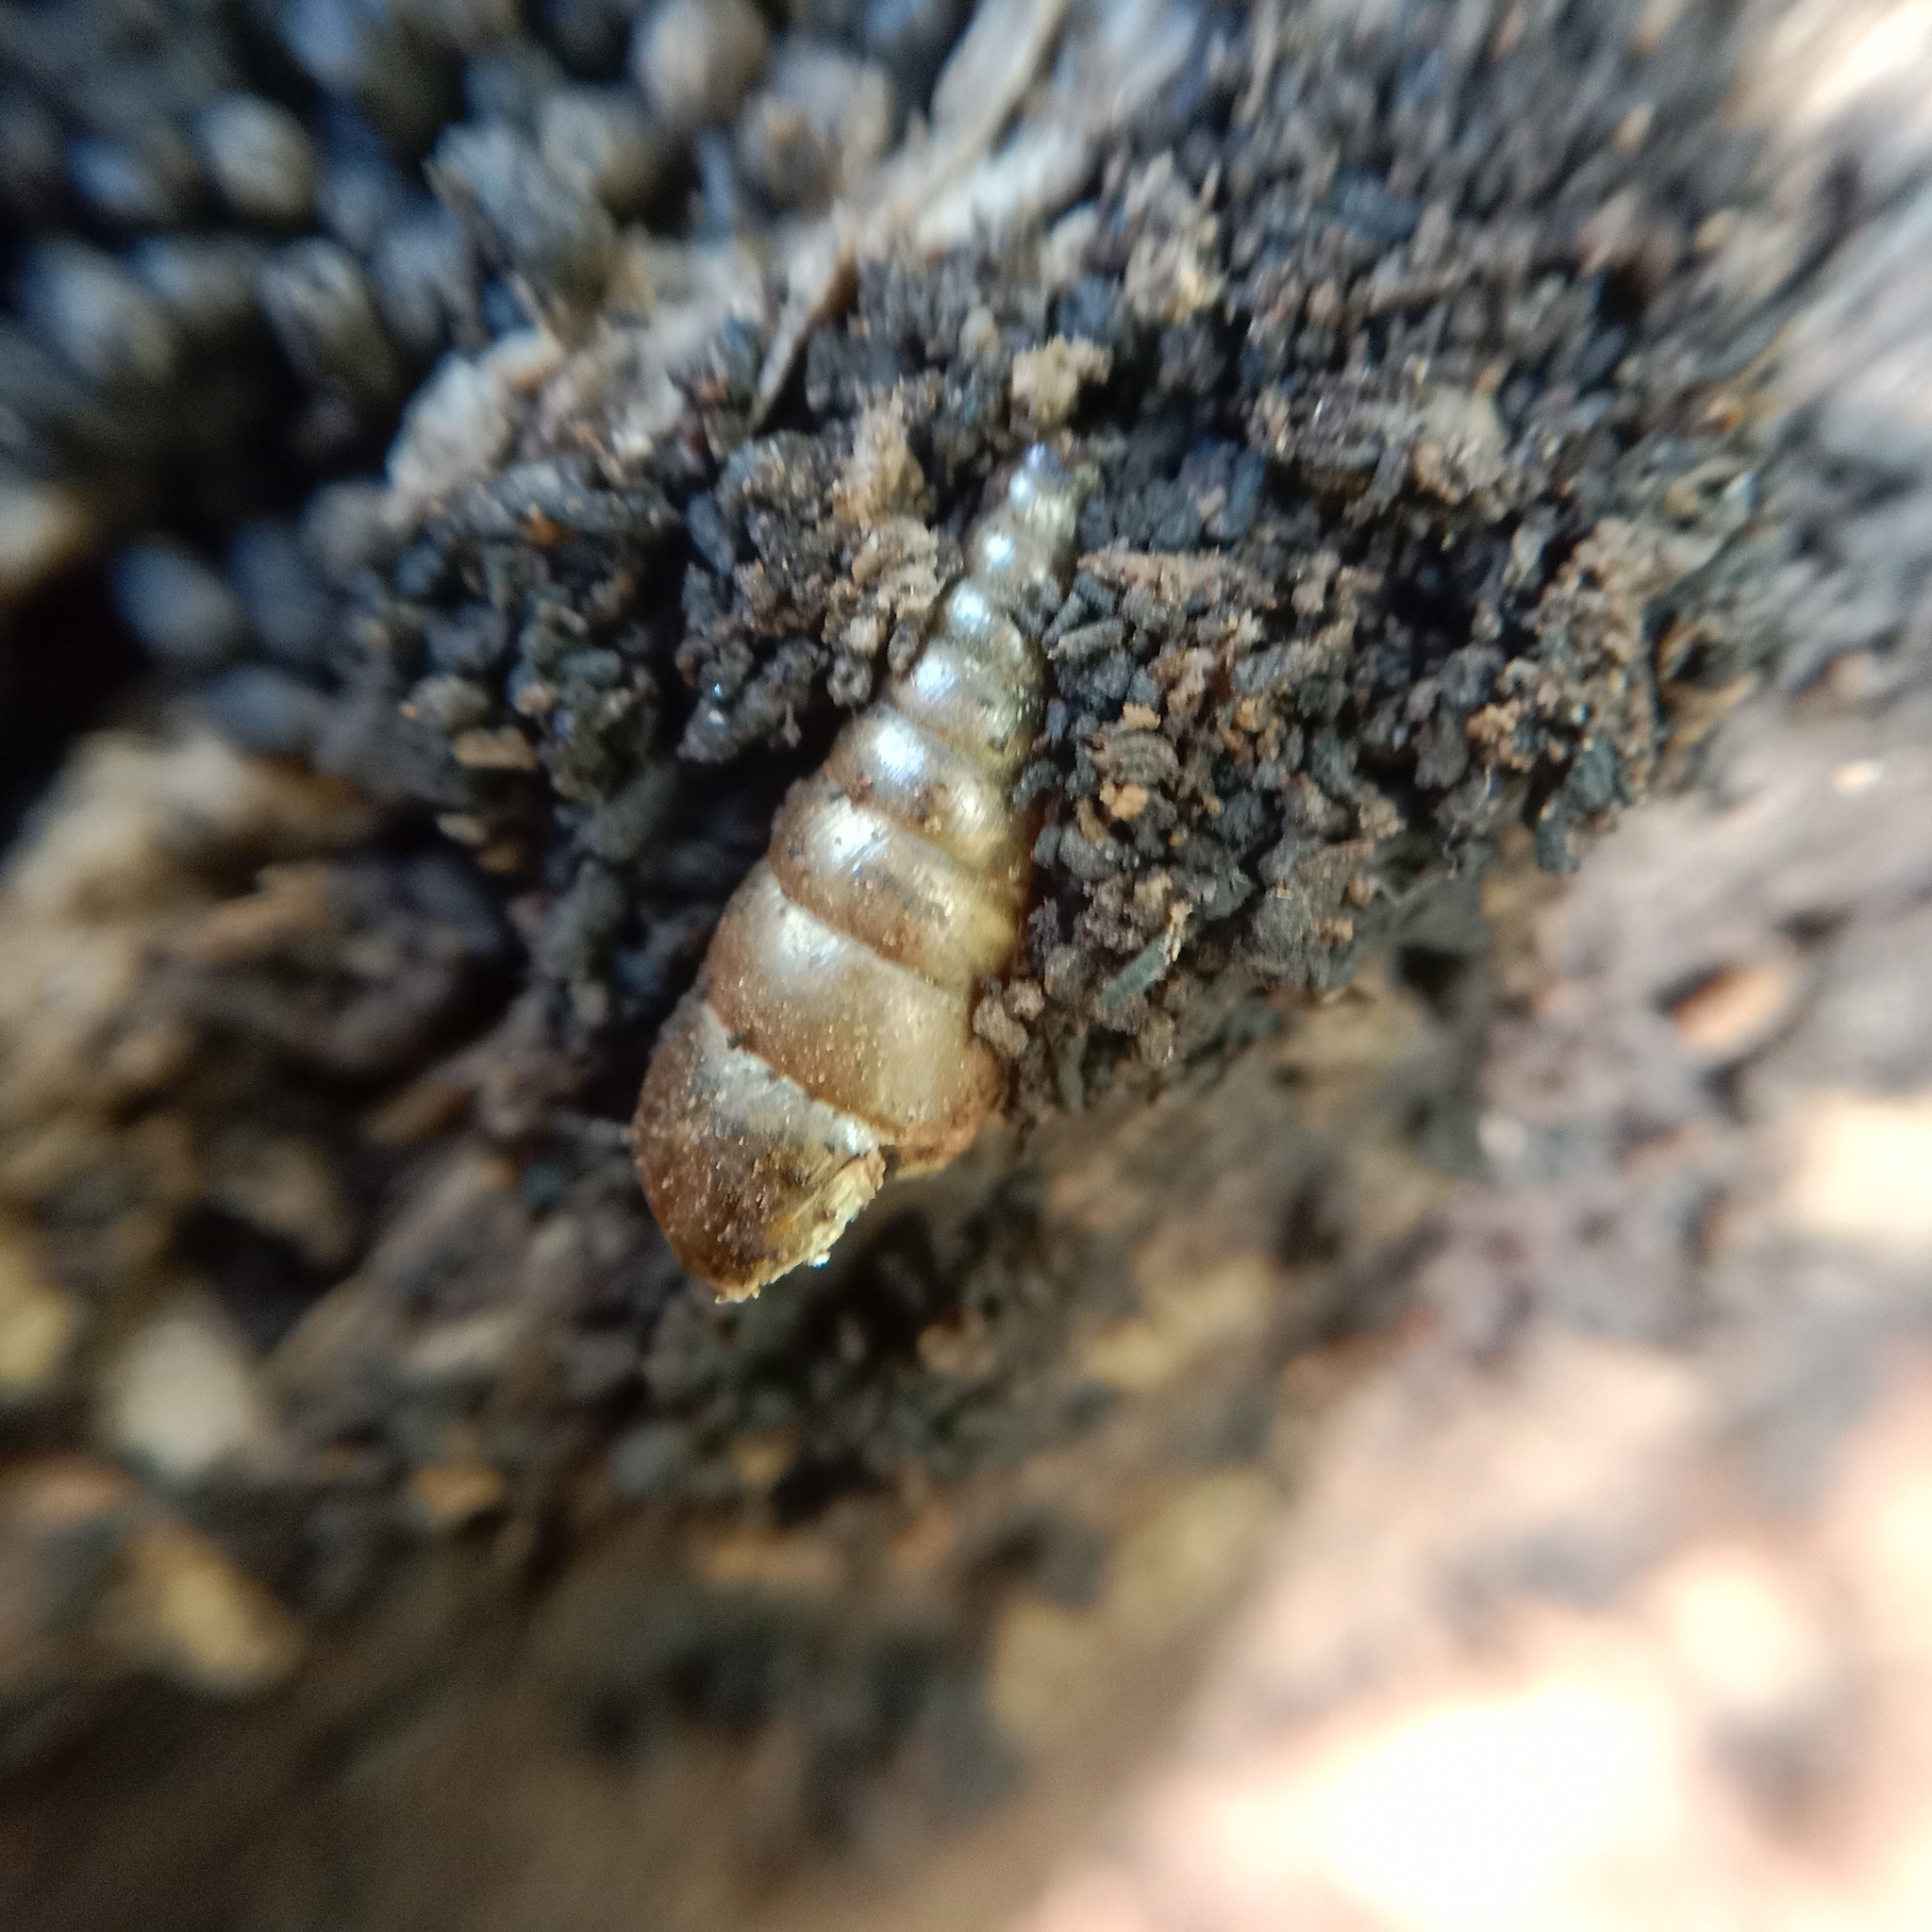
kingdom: Animalia
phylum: Mollusca
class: Gastropoda
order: Stylommatophora
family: Clausiliidae
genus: Cochlodina
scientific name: Cochlodina laminata
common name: Plaited door snail
